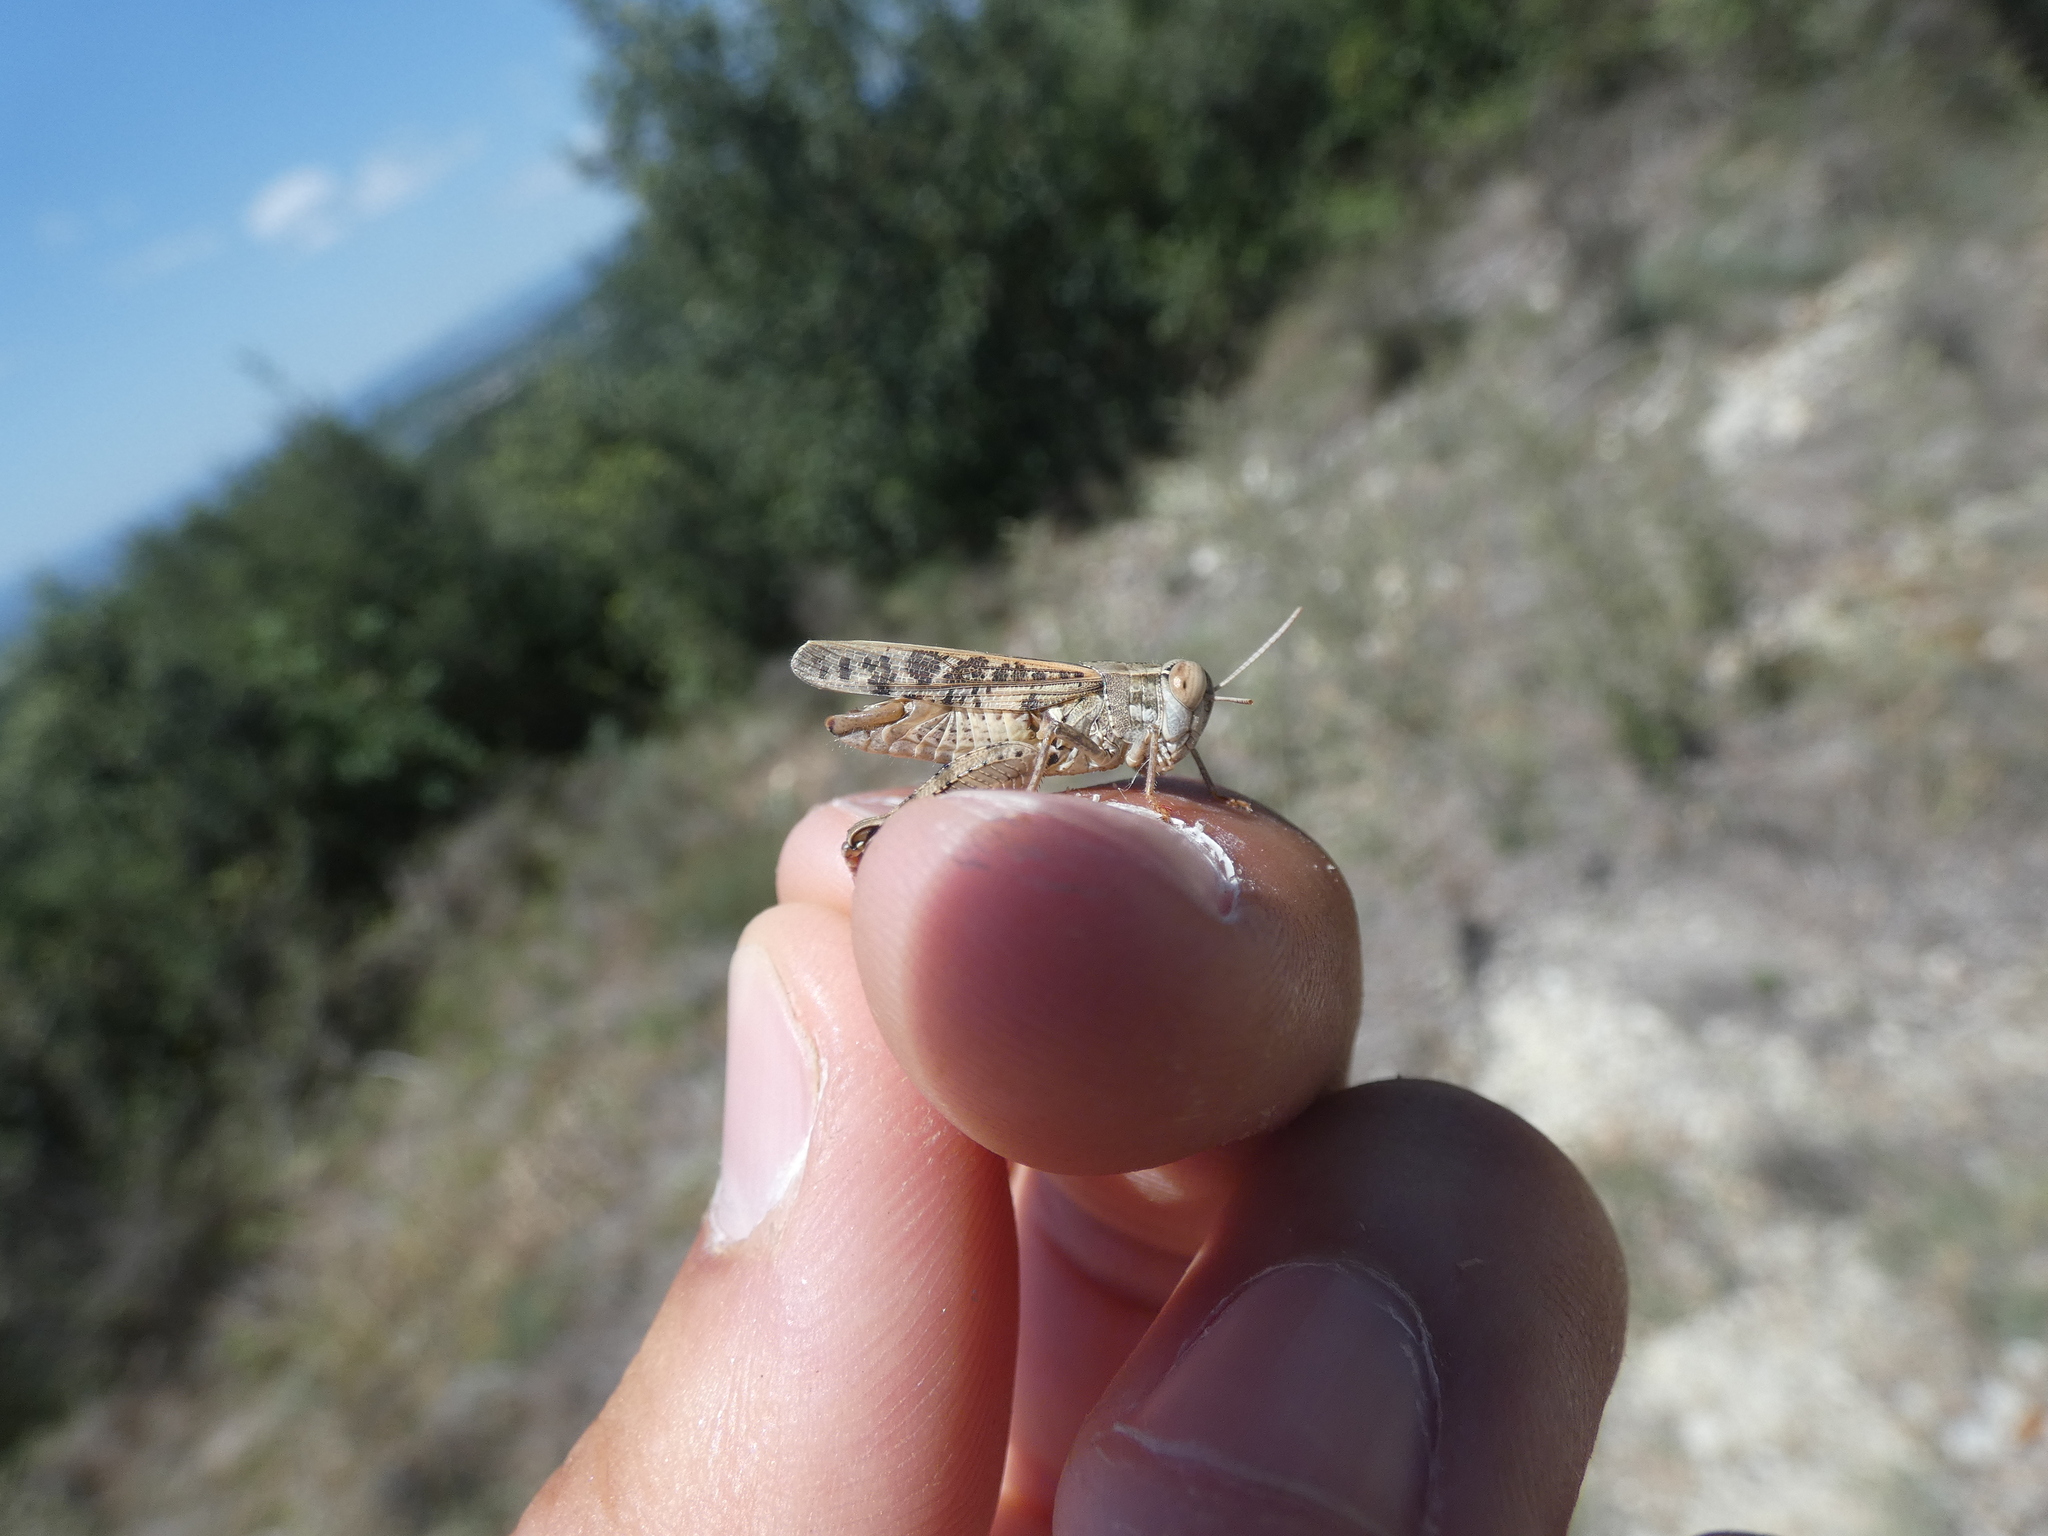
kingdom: Animalia
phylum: Arthropoda
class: Insecta
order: Orthoptera
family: Acrididae
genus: Calliptamus
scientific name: Calliptamus barbarus
